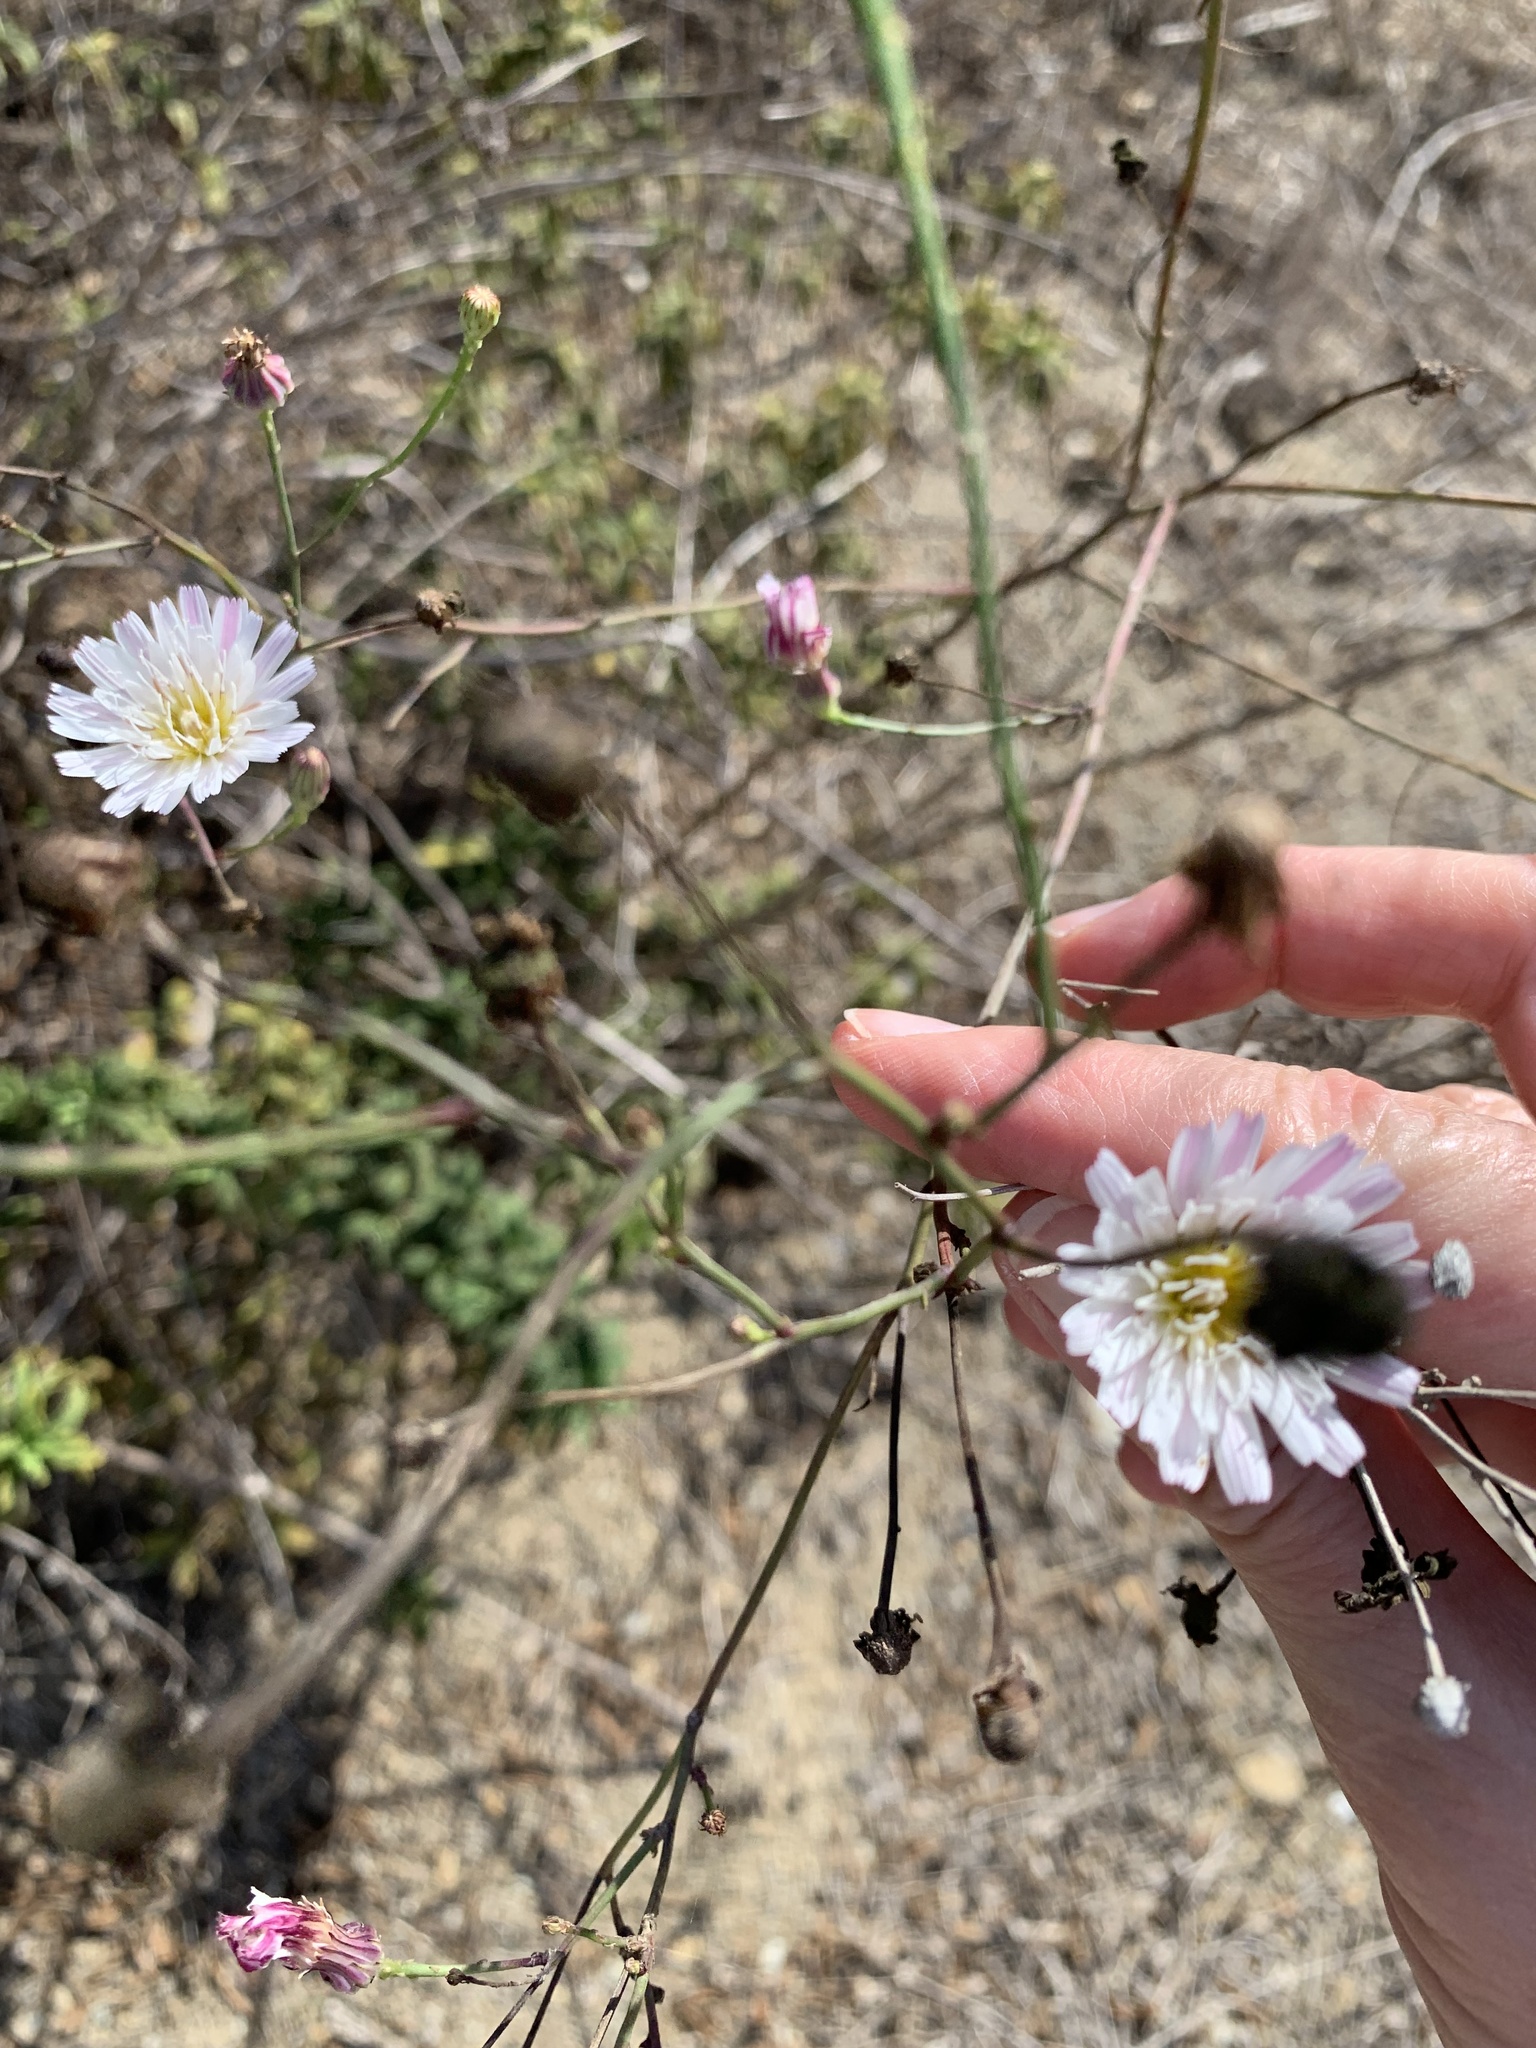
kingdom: Plantae
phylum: Tracheophyta
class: Magnoliopsida
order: Asterales
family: Asteraceae
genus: Malacothrix
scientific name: Malacothrix saxatilis
